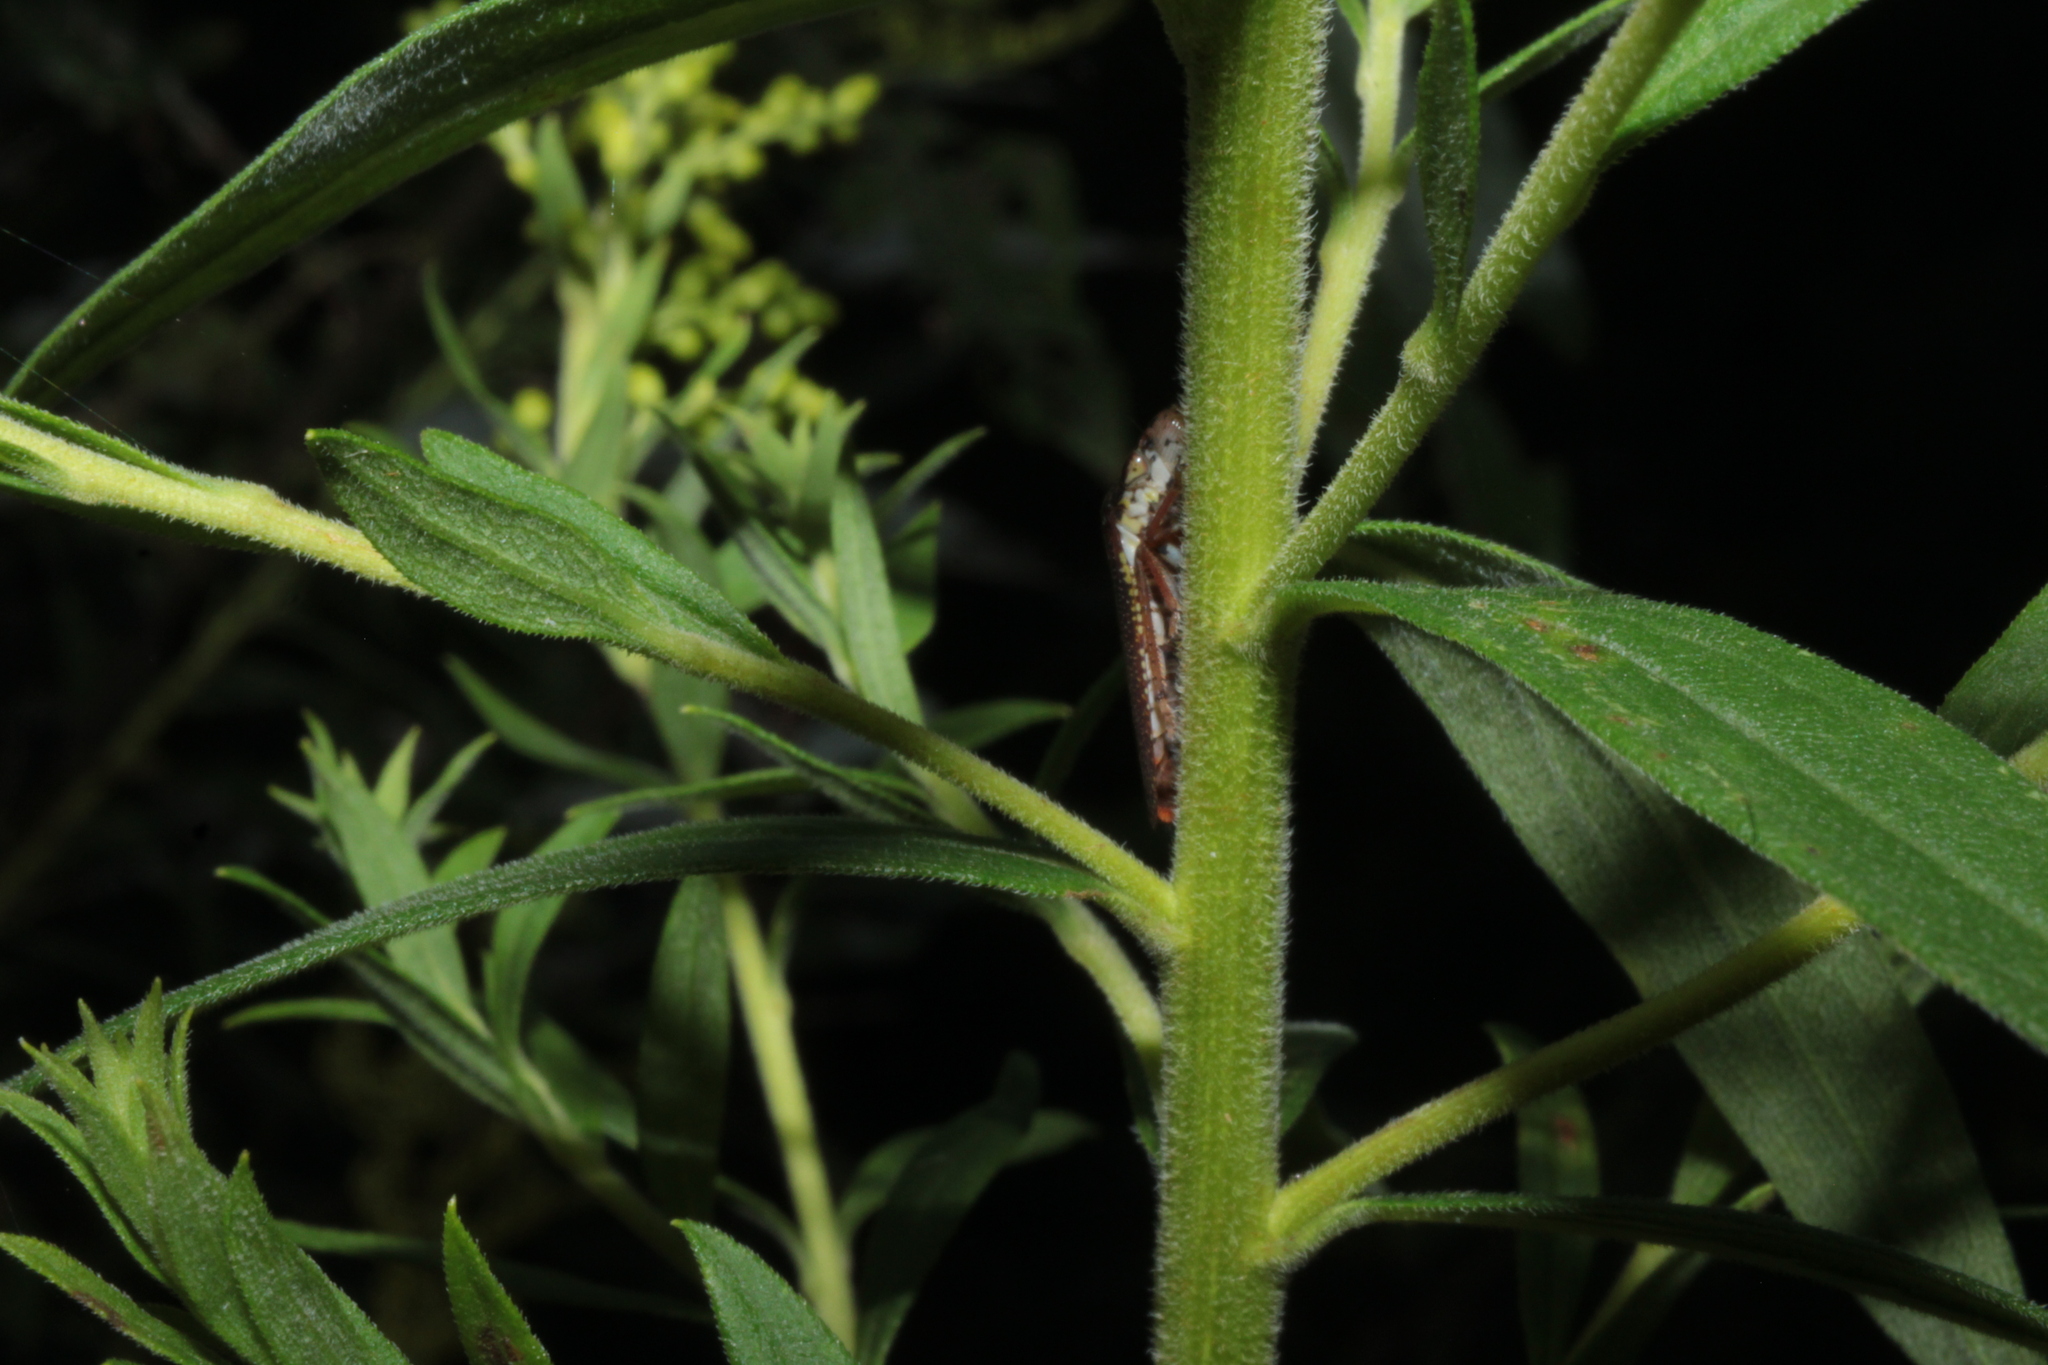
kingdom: Animalia
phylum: Arthropoda
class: Insecta
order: Hemiptera
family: Cicadellidae
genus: Paraulacizes
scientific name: Paraulacizes irrorata
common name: Speckled sharpshooter
